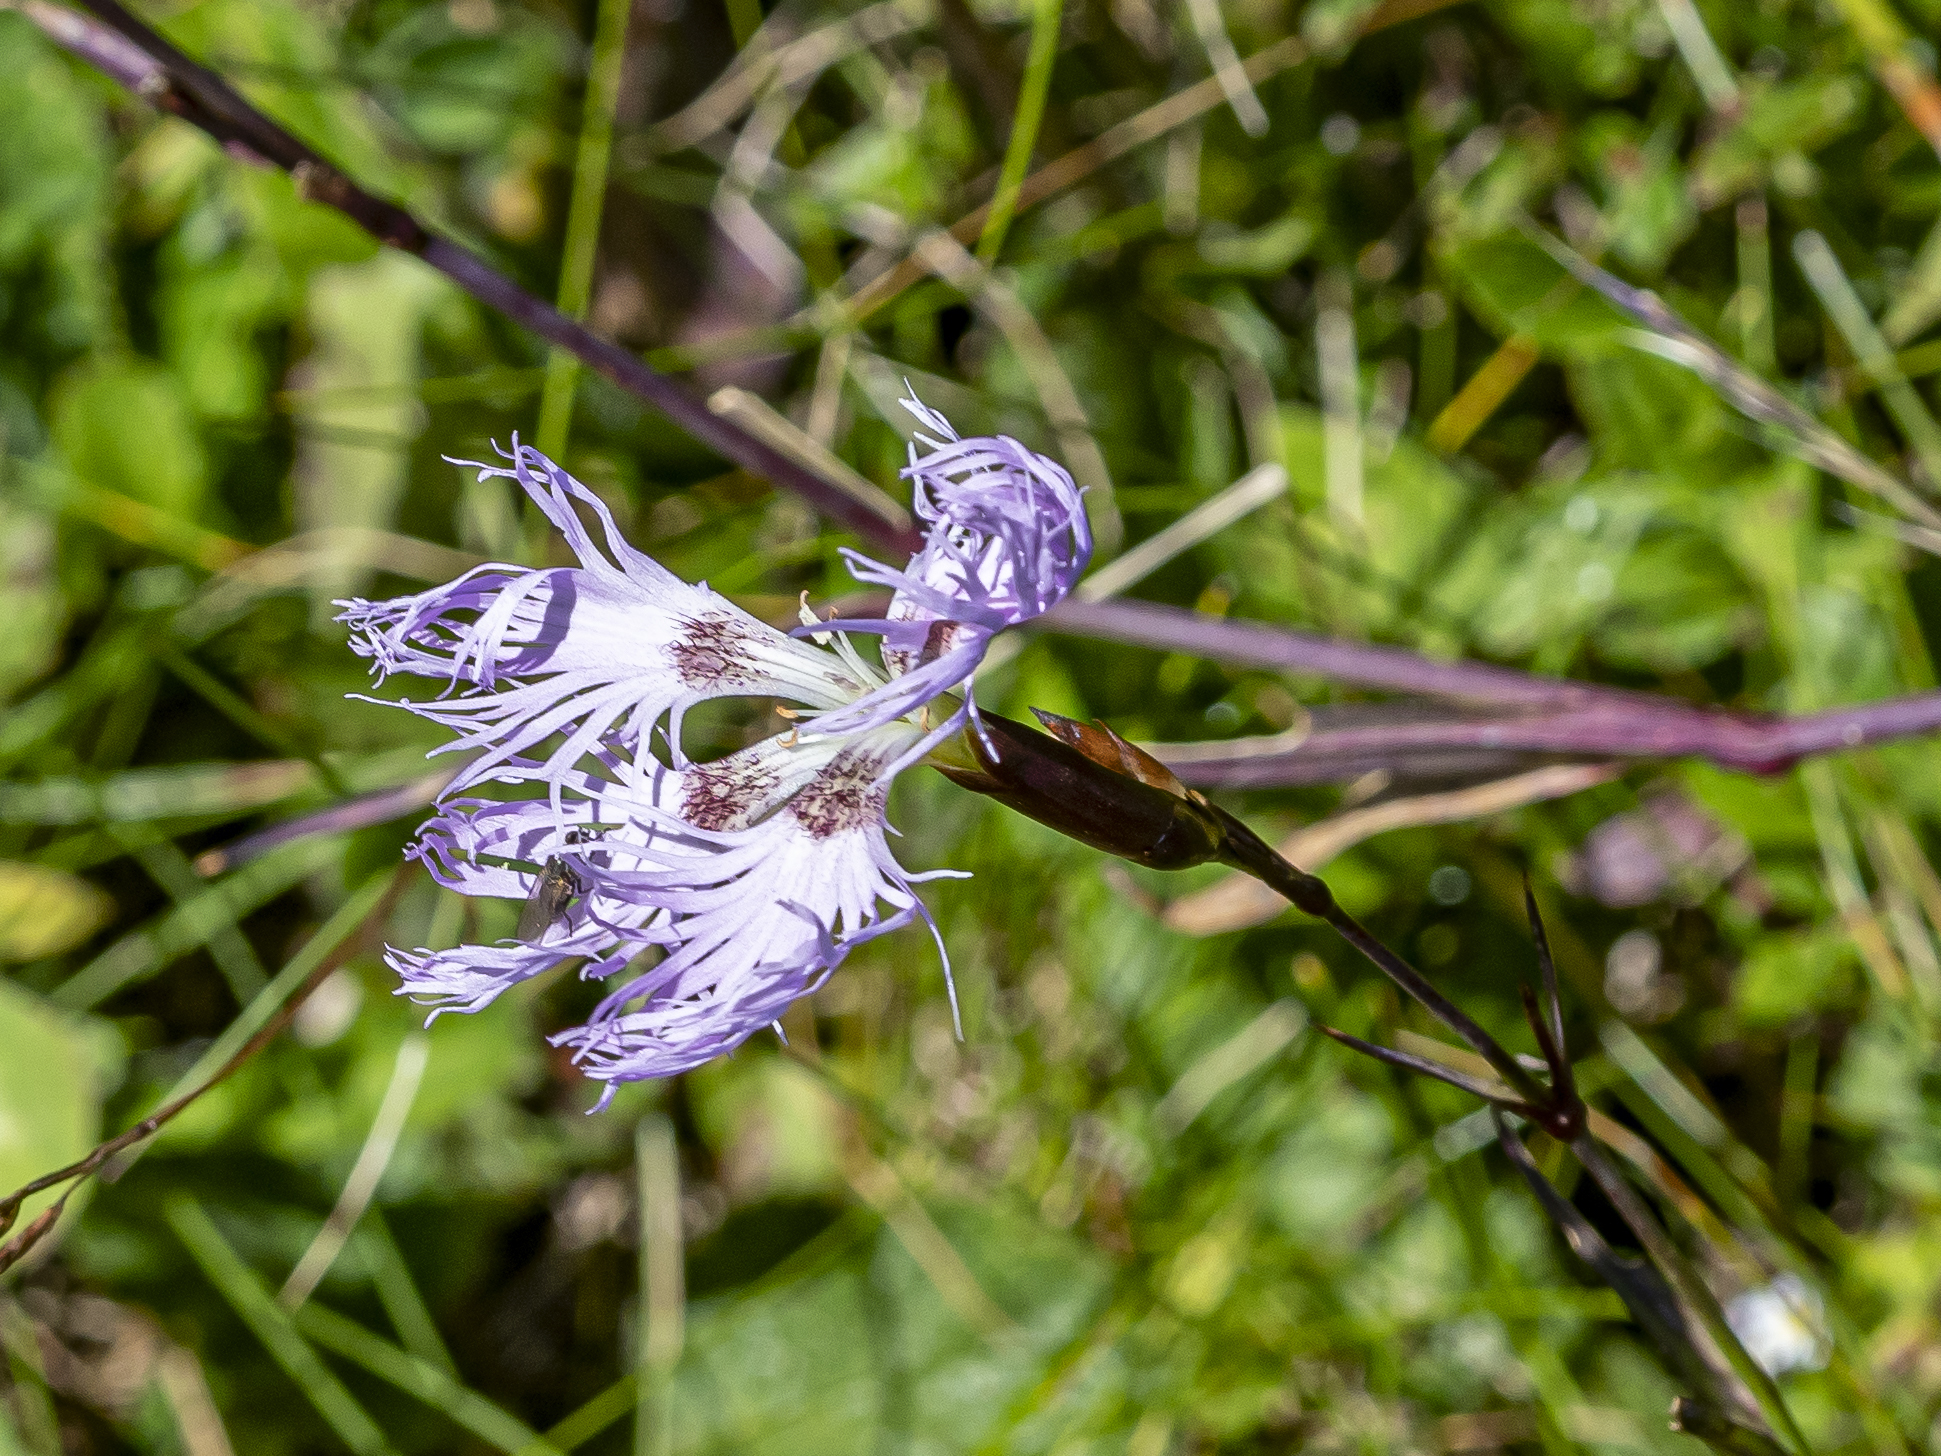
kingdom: Plantae
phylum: Tracheophyta
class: Magnoliopsida
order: Caryophyllales
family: Caryophyllaceae
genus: Dianthus
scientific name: Dianthus superbus
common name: Fringed pink
